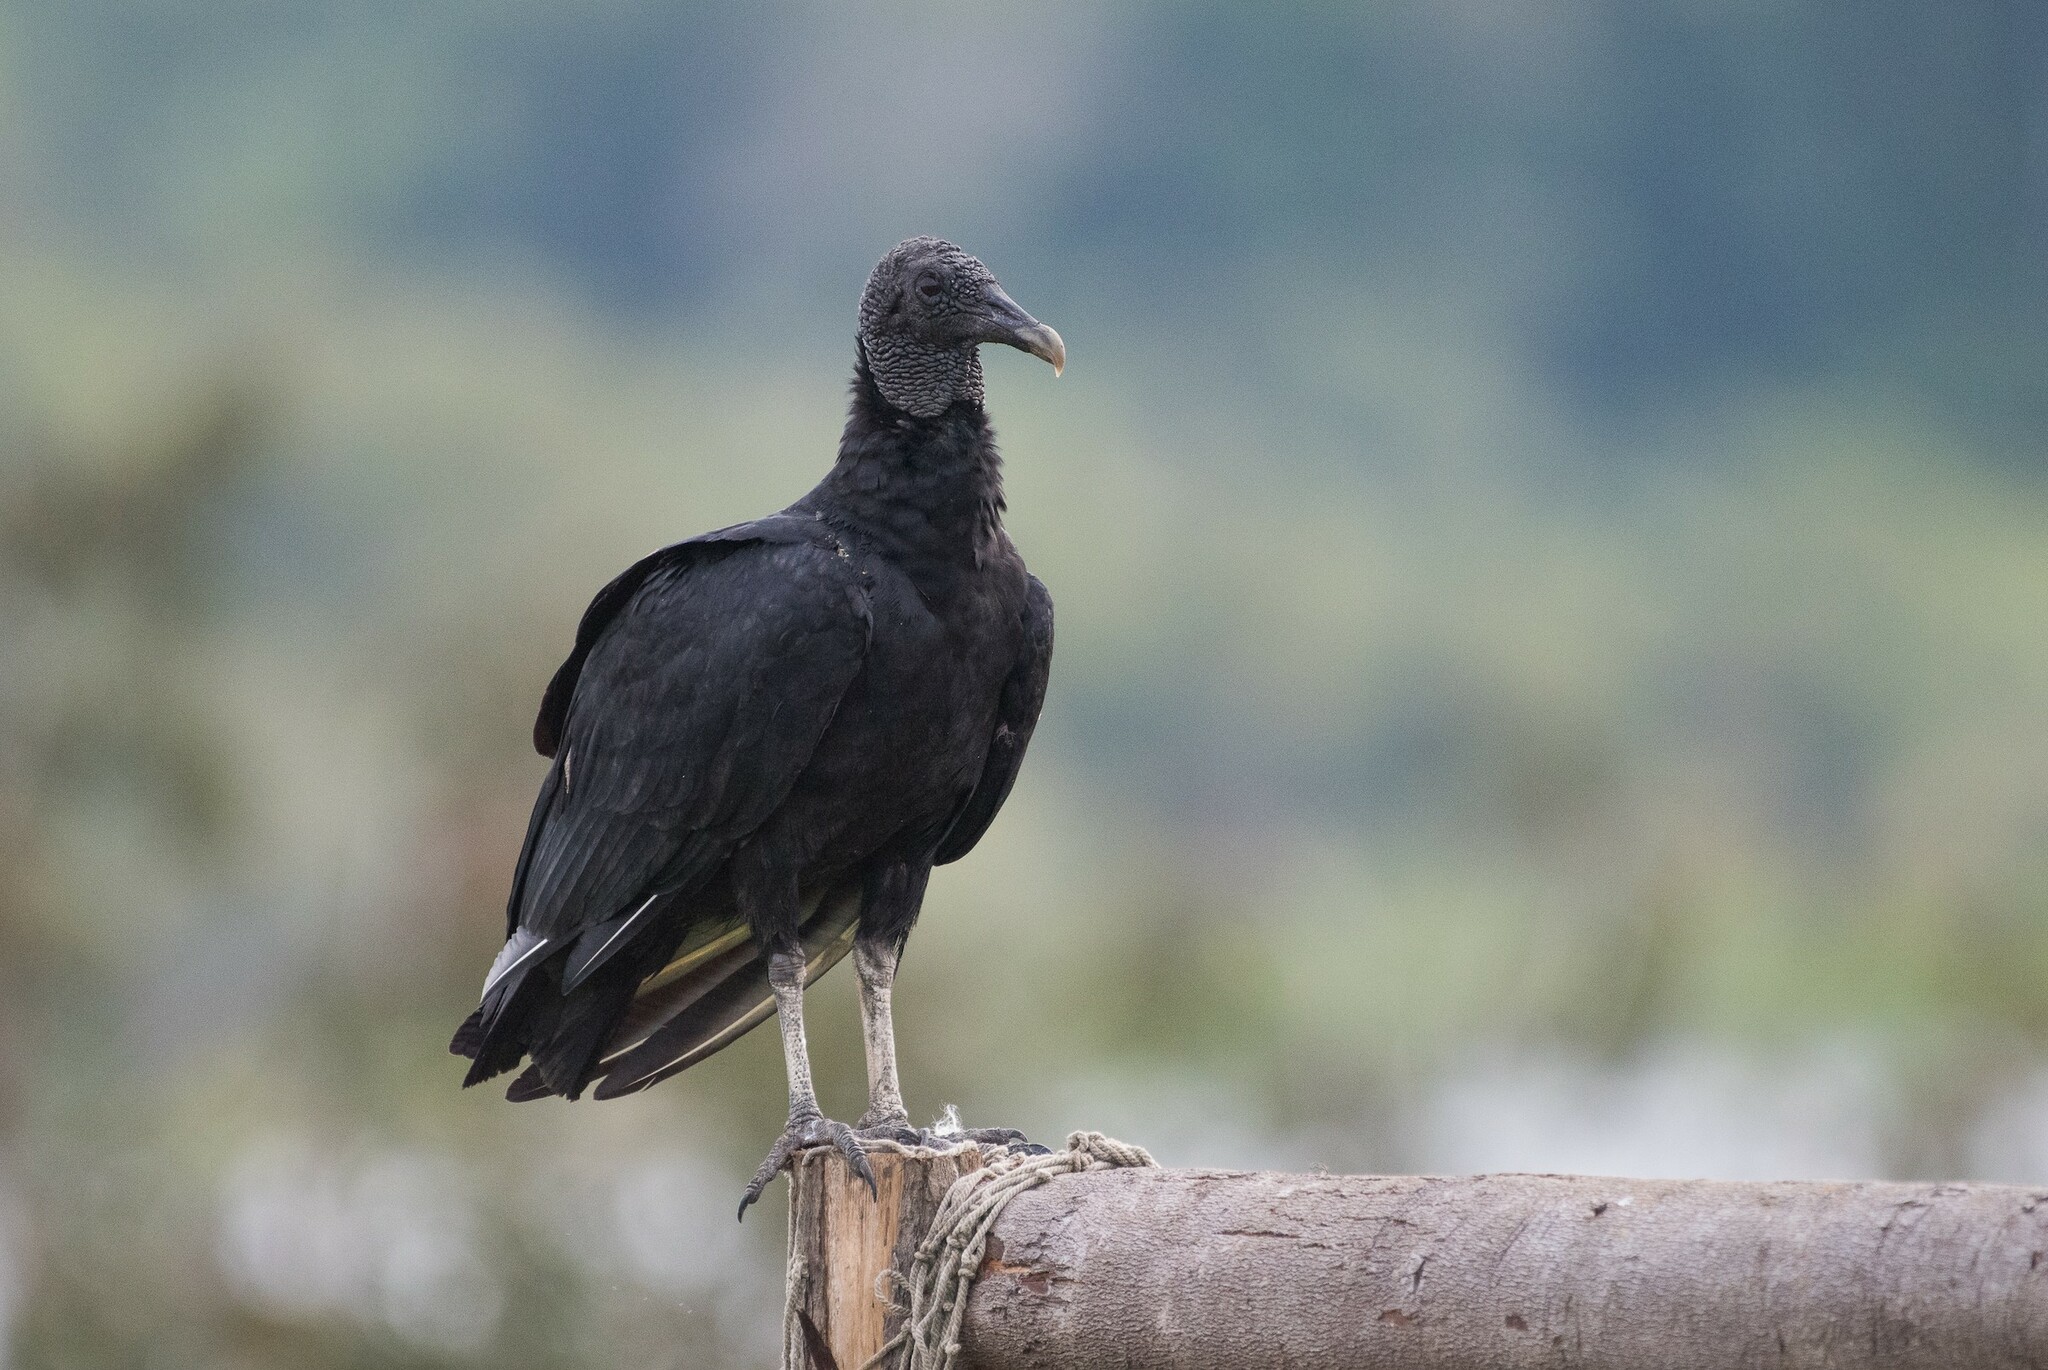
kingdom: Animalia
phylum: Chordata
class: Aves
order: Accipitriformes
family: Cathartidae
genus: Coragyps
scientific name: Coragyps atratus
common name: Black vulture
